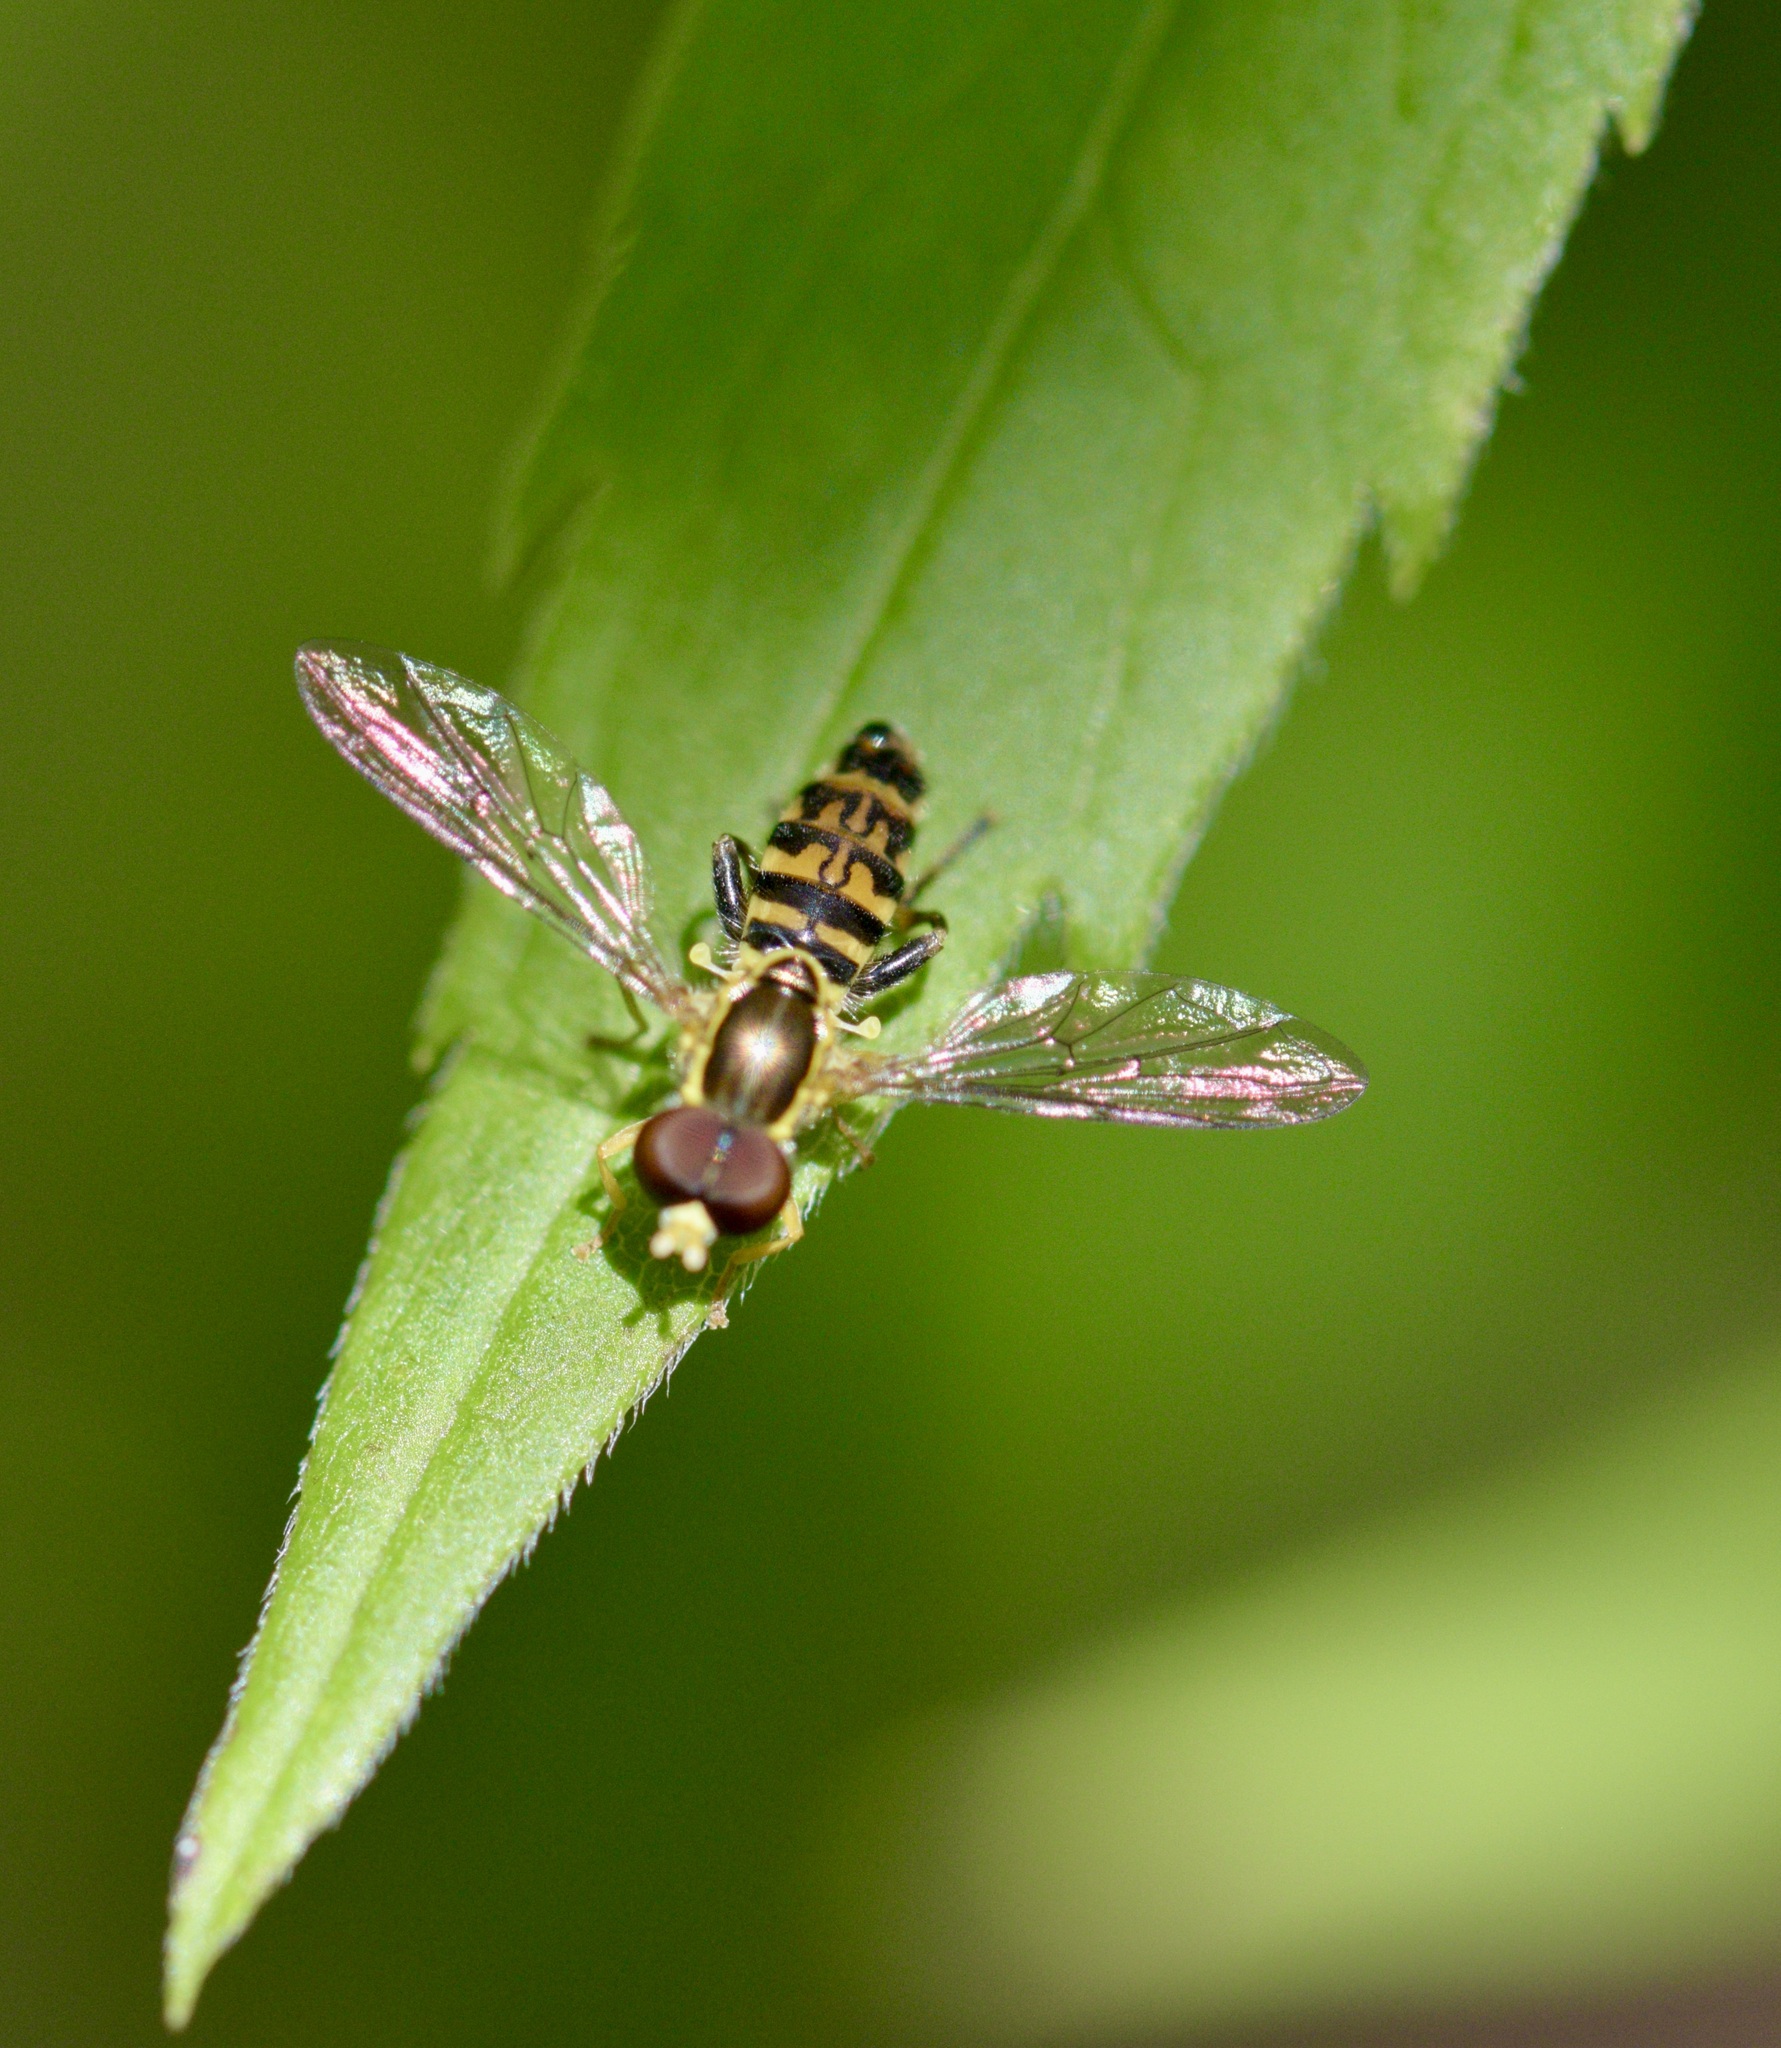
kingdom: Animalia
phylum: Arthropoda
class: Insecta
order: Diptera
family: Syrphidae
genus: Toxomerus
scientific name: Toxomerus geminatus
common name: Eastern calligrapher
